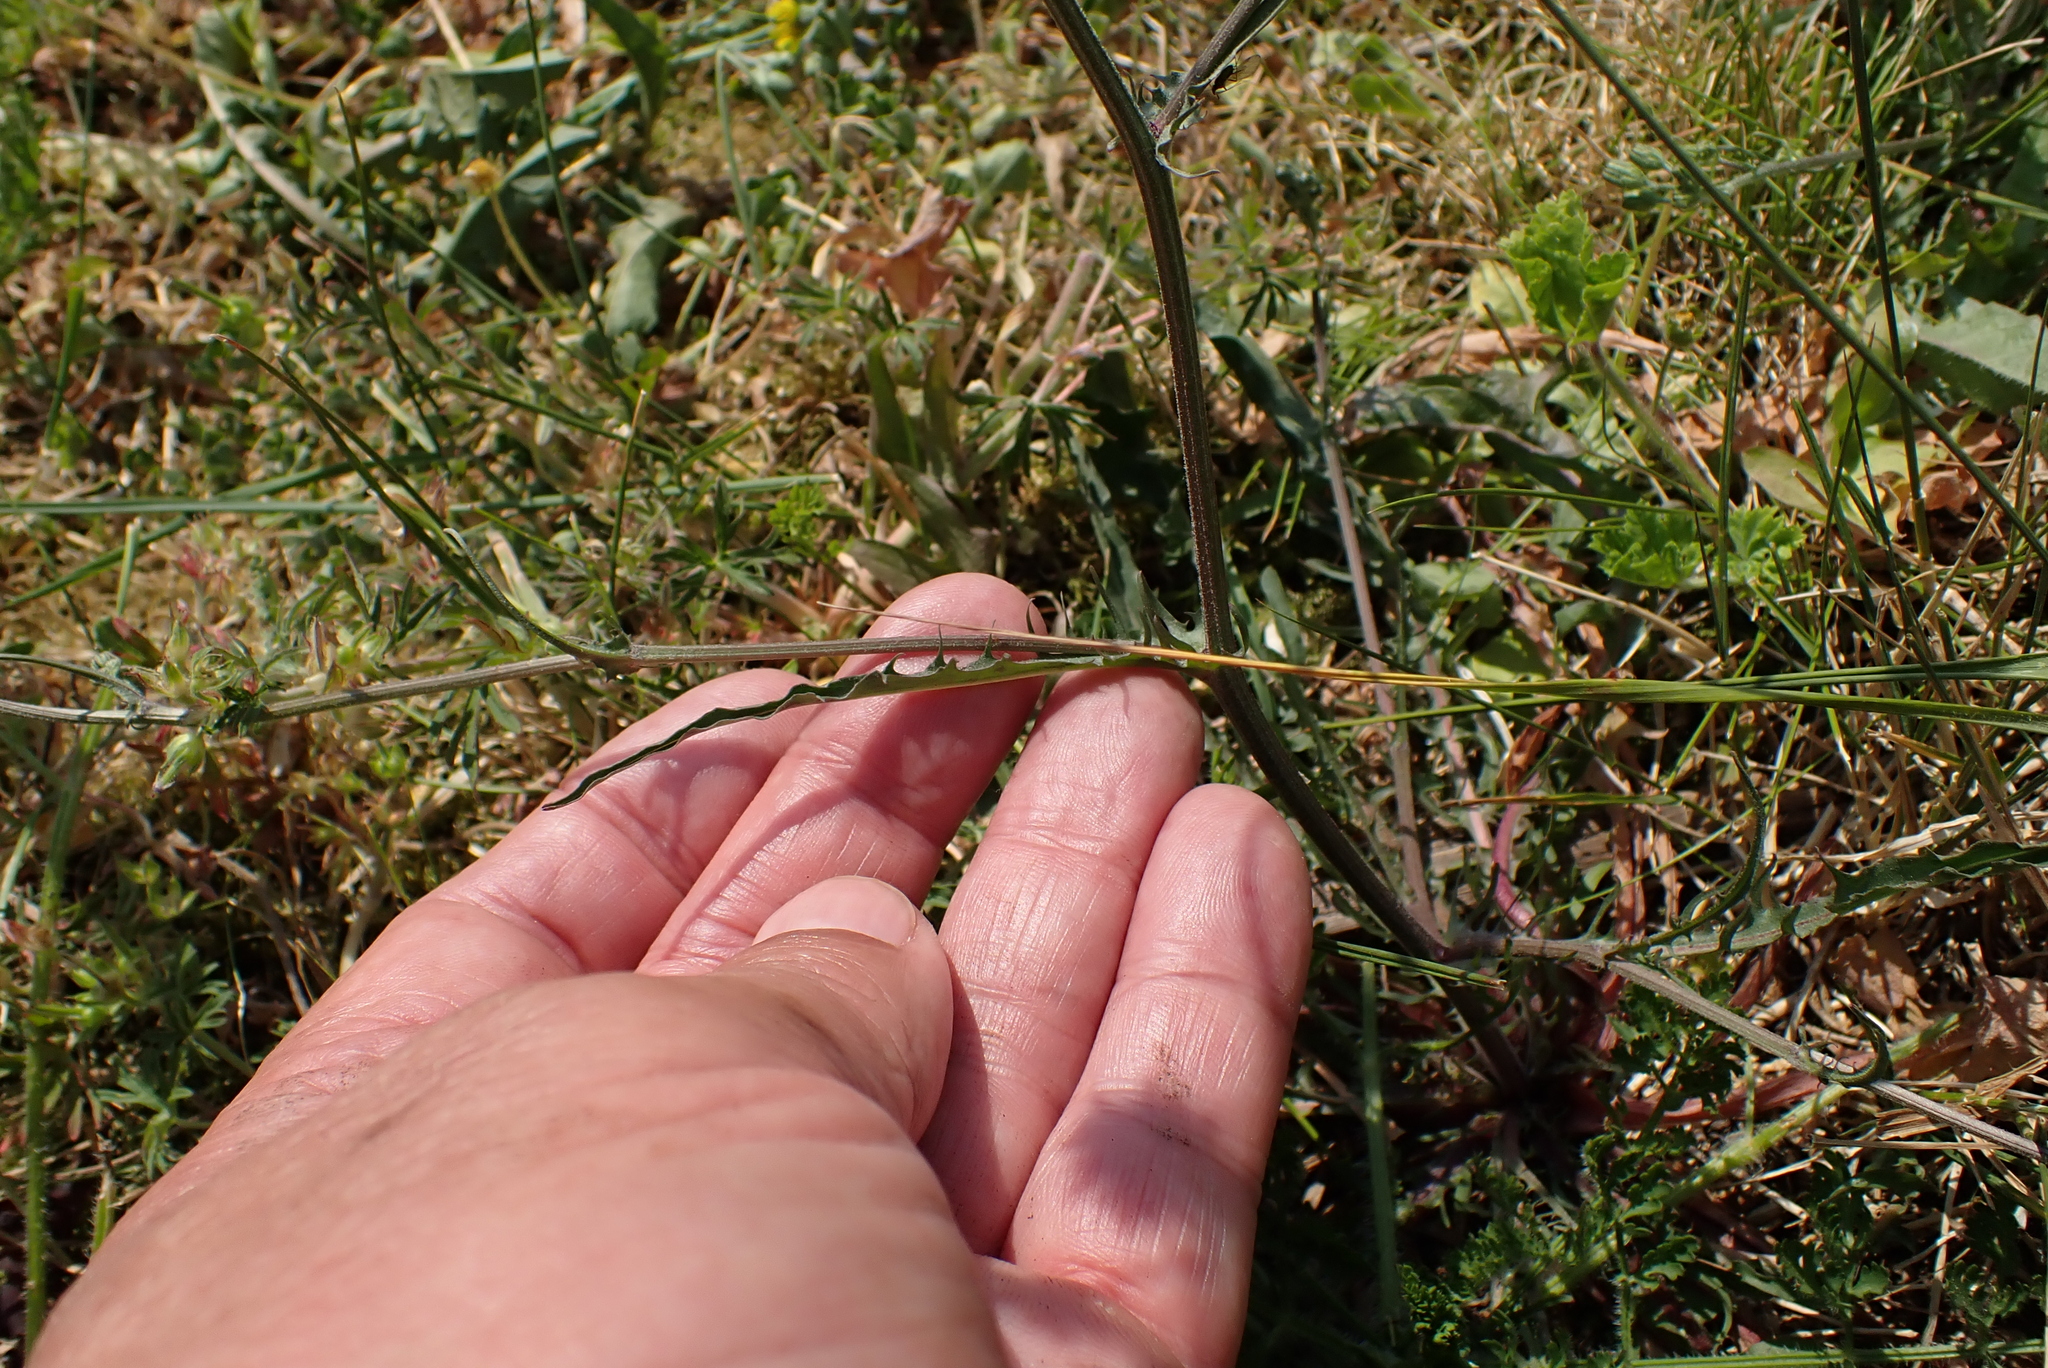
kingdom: Plantae
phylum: Tracheophyta
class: Magnoliopsida
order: Asterales
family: Asteraceae
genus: Crepis
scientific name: Crepis capillaris
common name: Smooth hawksbeard
